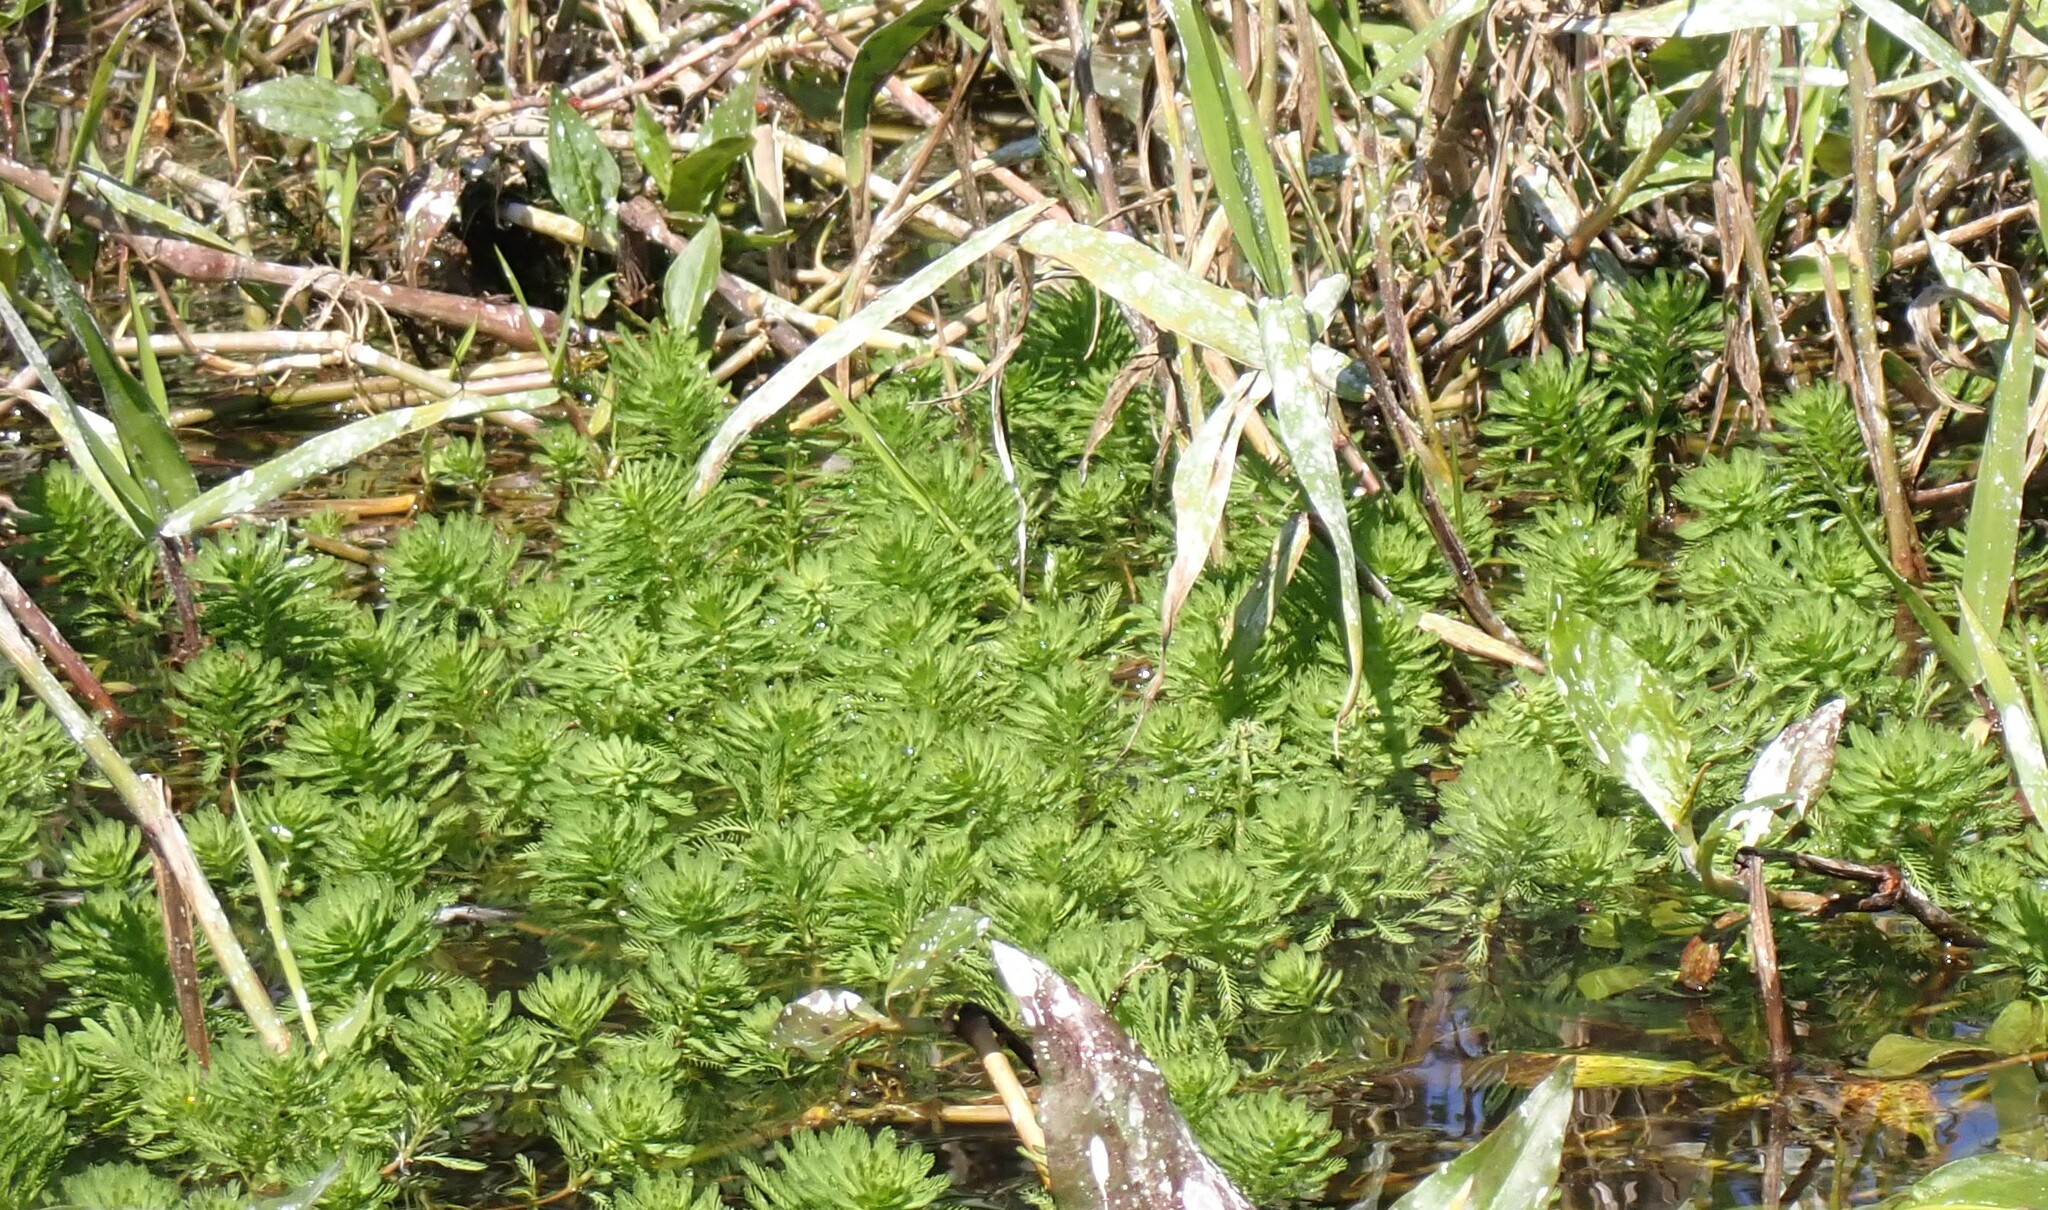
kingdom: Plantae
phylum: Tracheophyta
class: Magnoliopsida
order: Saxifragales
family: Haloragaceae
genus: Myriophyllum
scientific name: Myriophyllum aquaticum
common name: Parrot's feather
